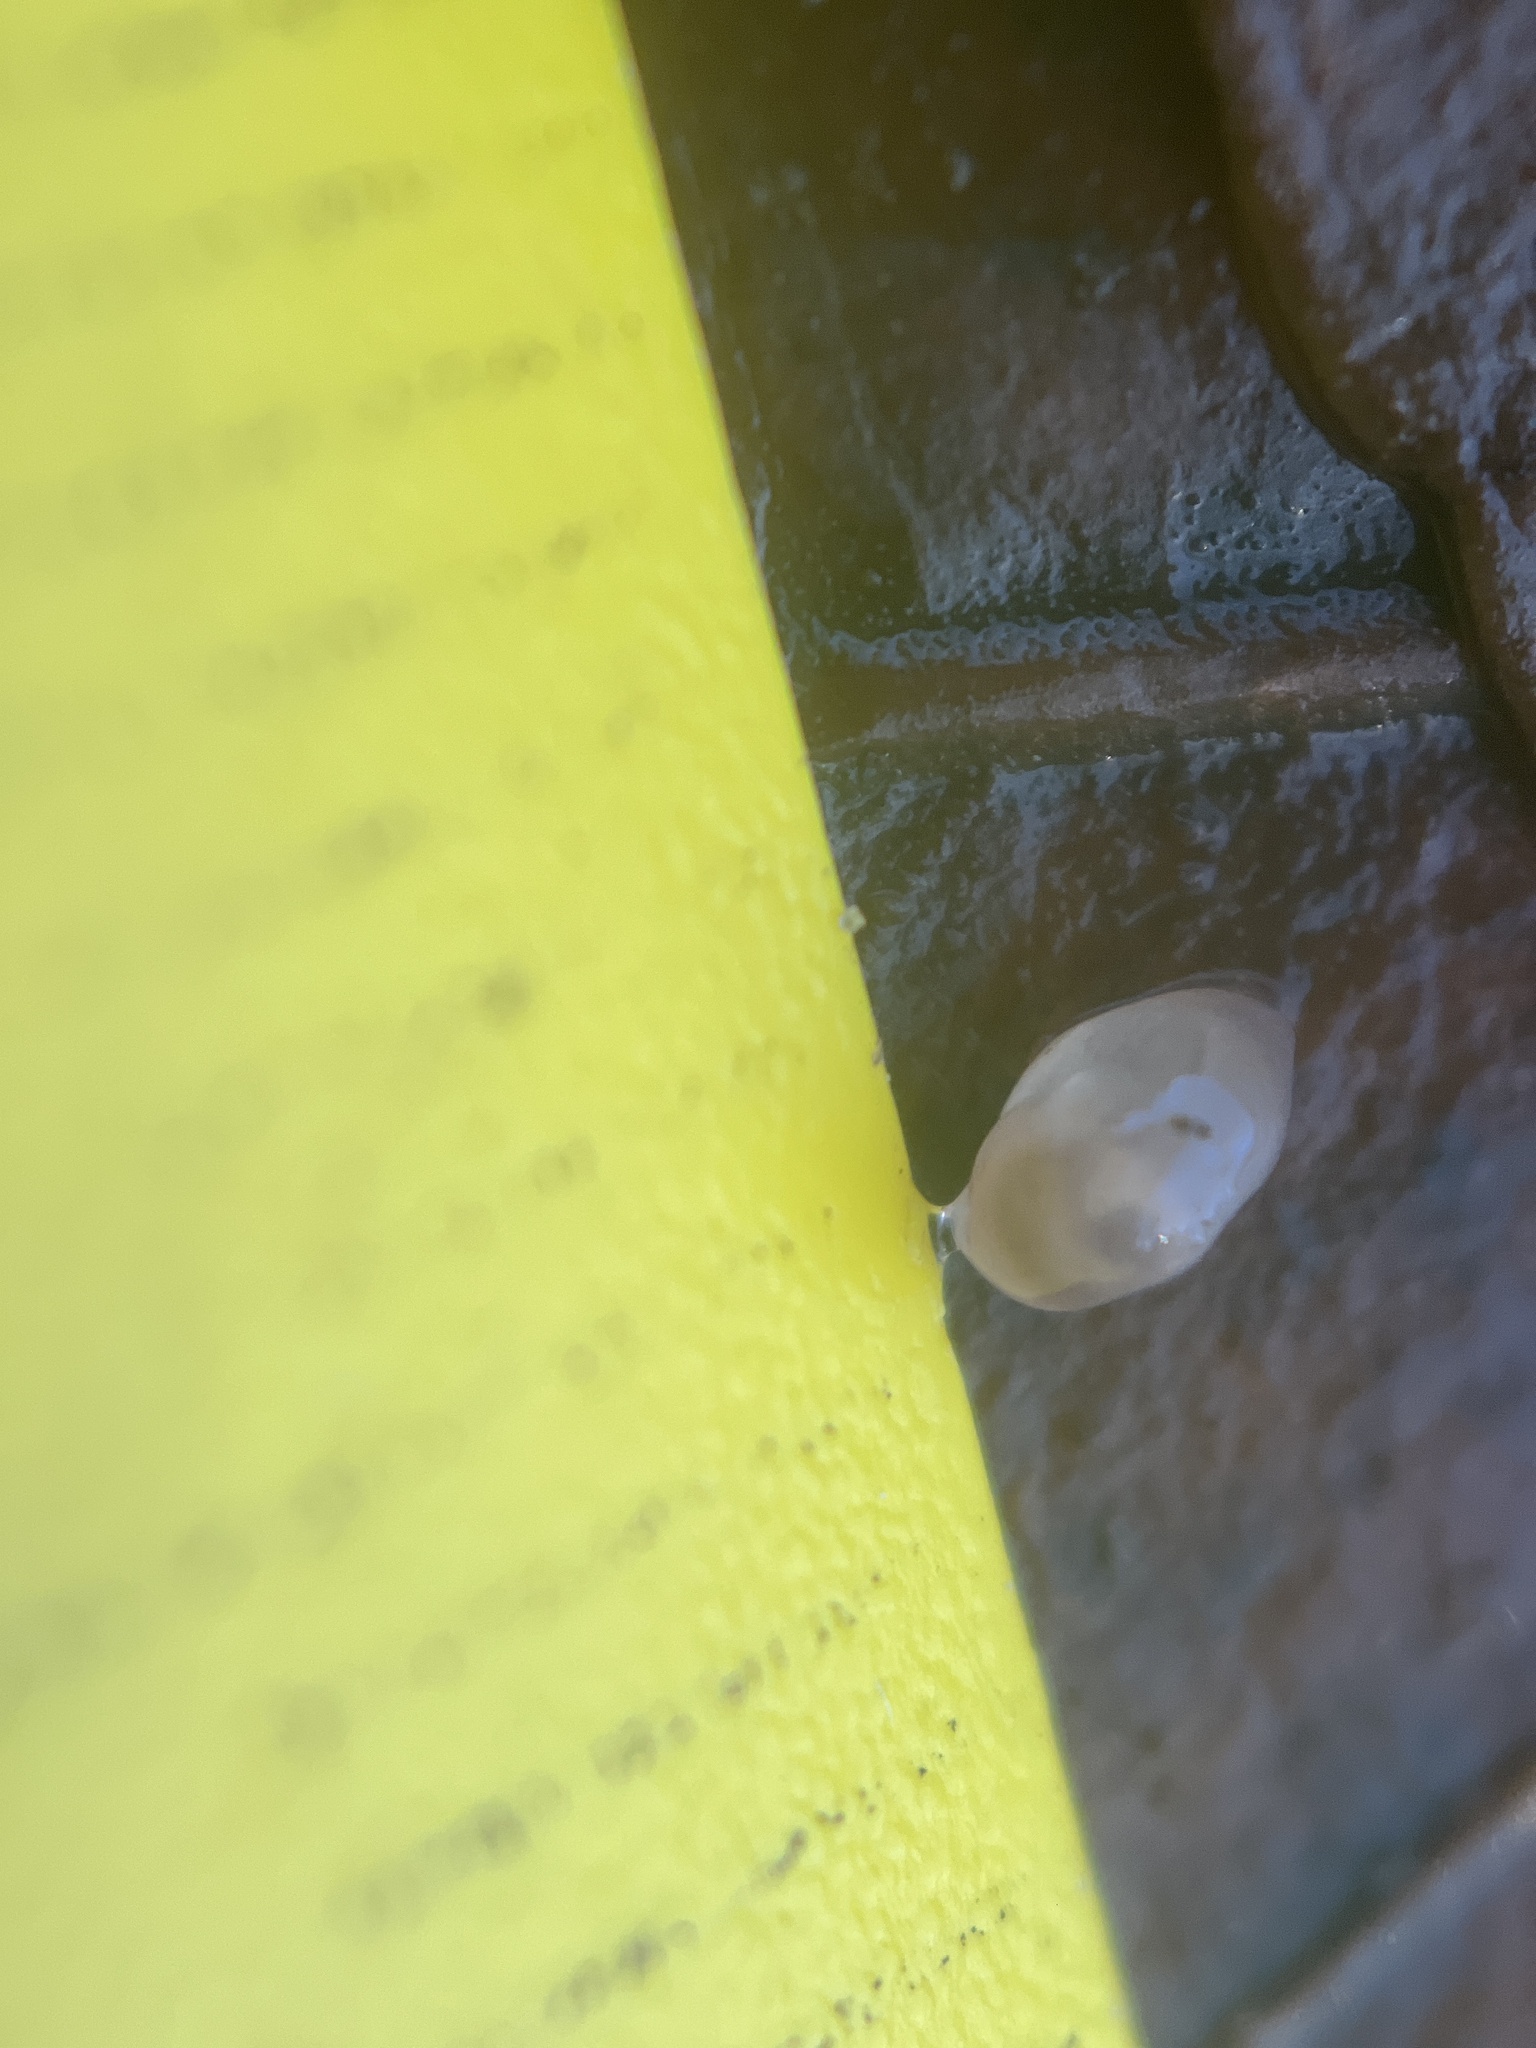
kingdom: Animalia
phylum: Mollusca
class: Gastropoda
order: Stylommatophora
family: Agriolimacidae
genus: Deroceras
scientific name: Deroceras reticulatum
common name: Gray field slug
